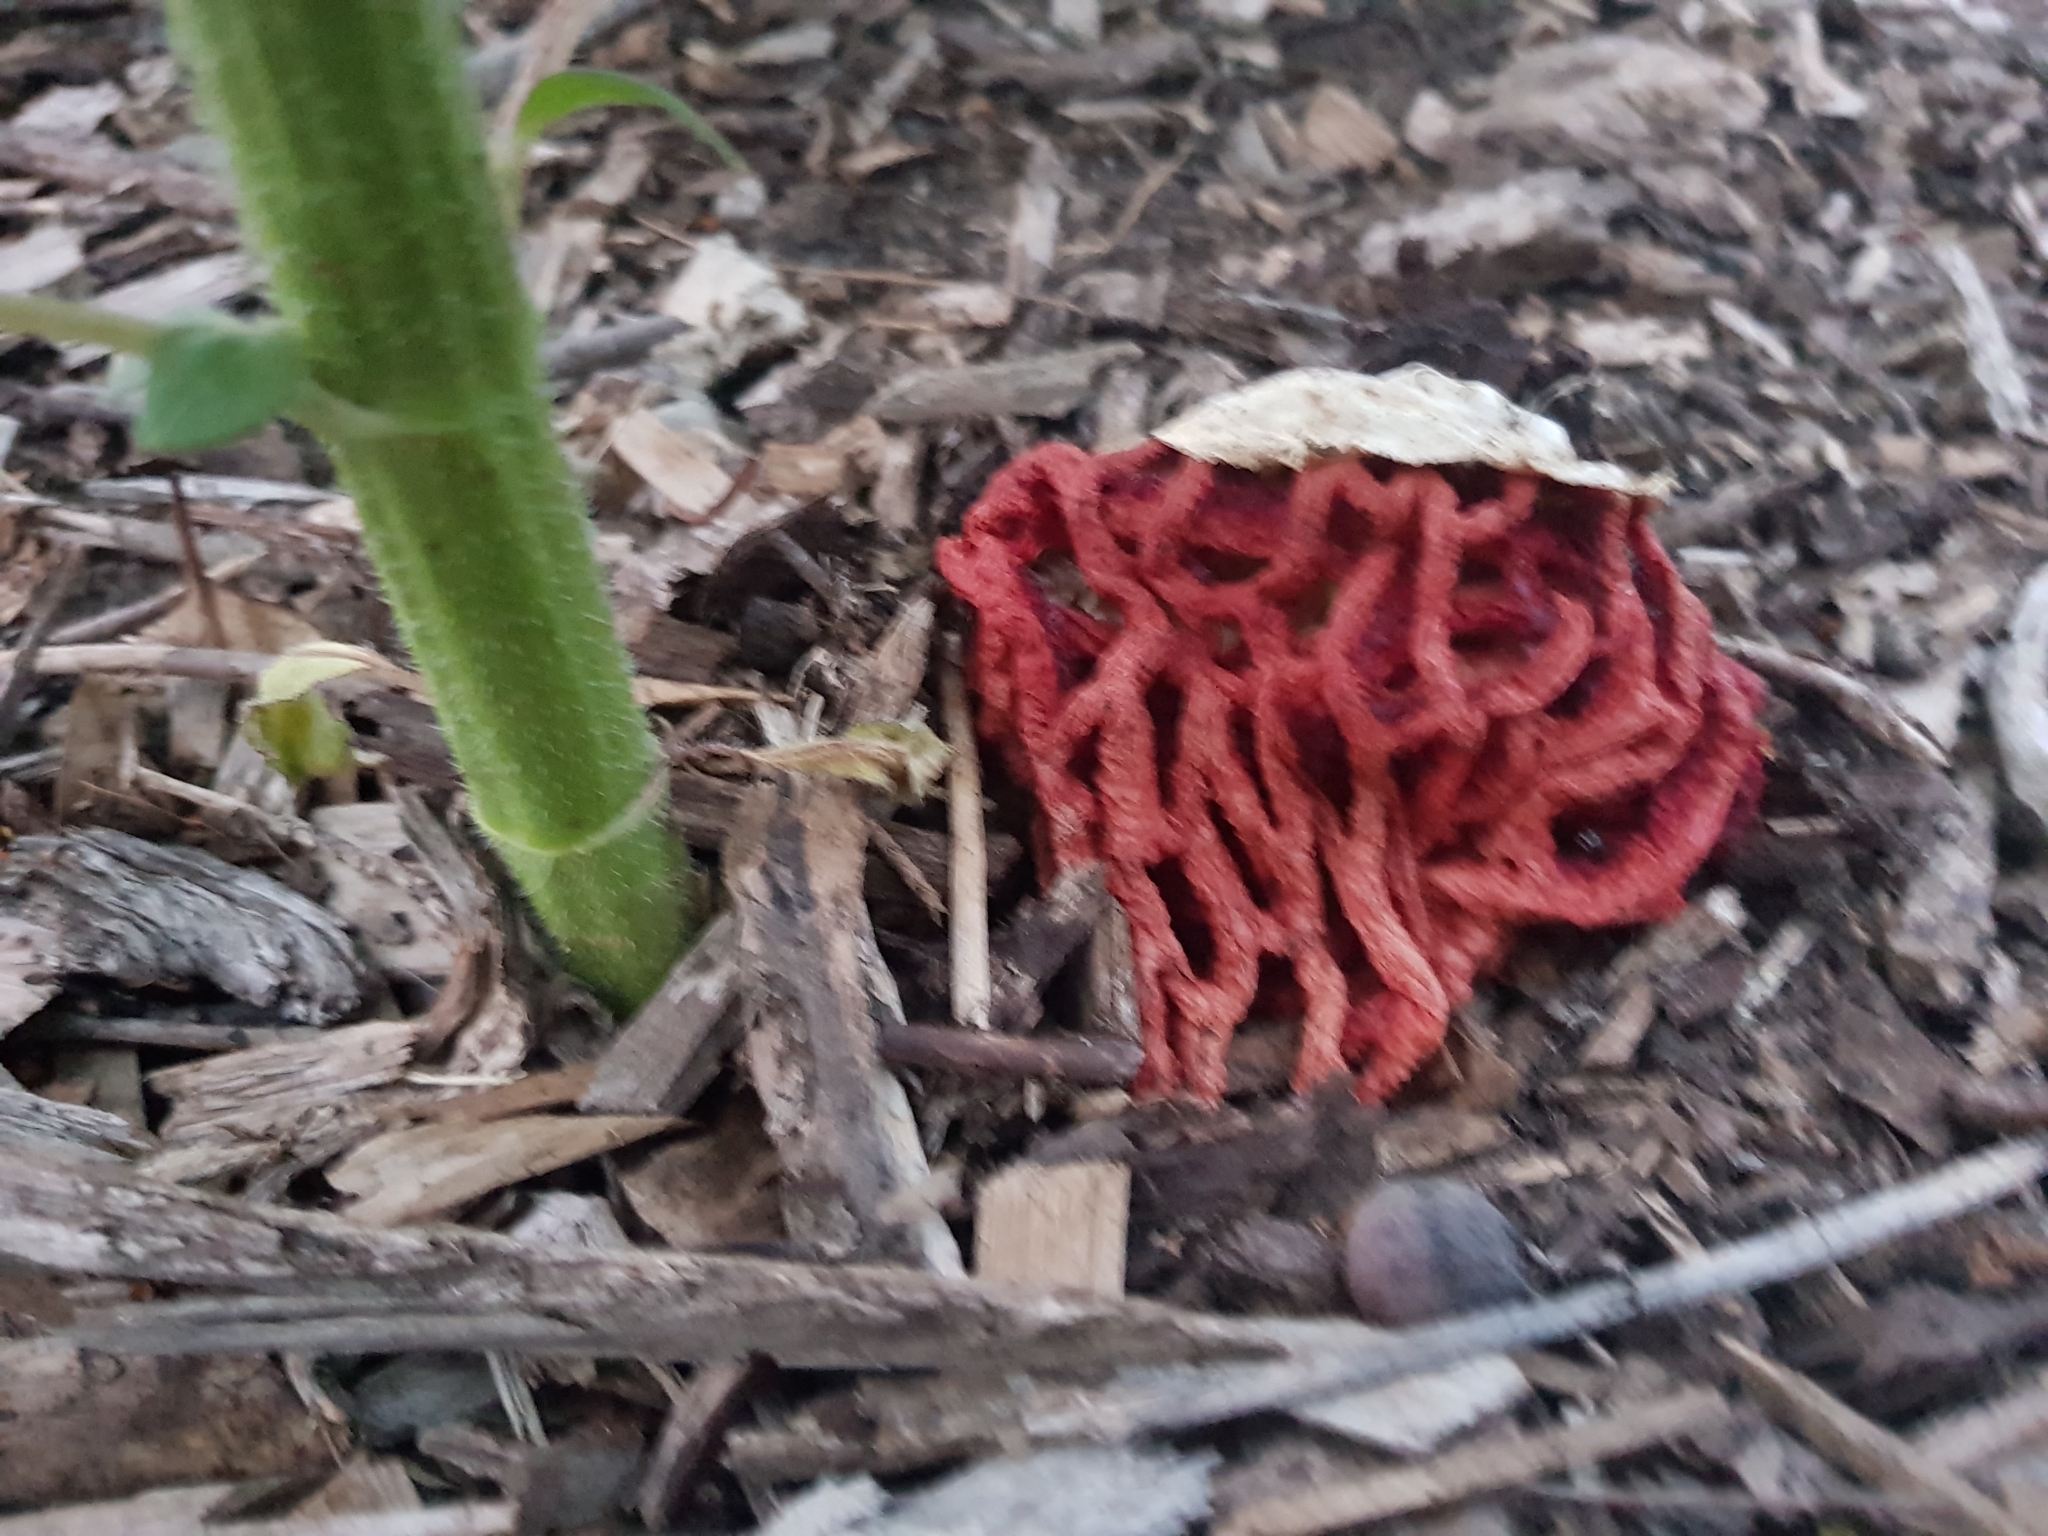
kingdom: Fungi
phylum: Basidiomycota
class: Agaricomycetes
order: Phallales
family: Phallaceae
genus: Clathrus
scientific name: Clathrus ruber
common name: Red cage
